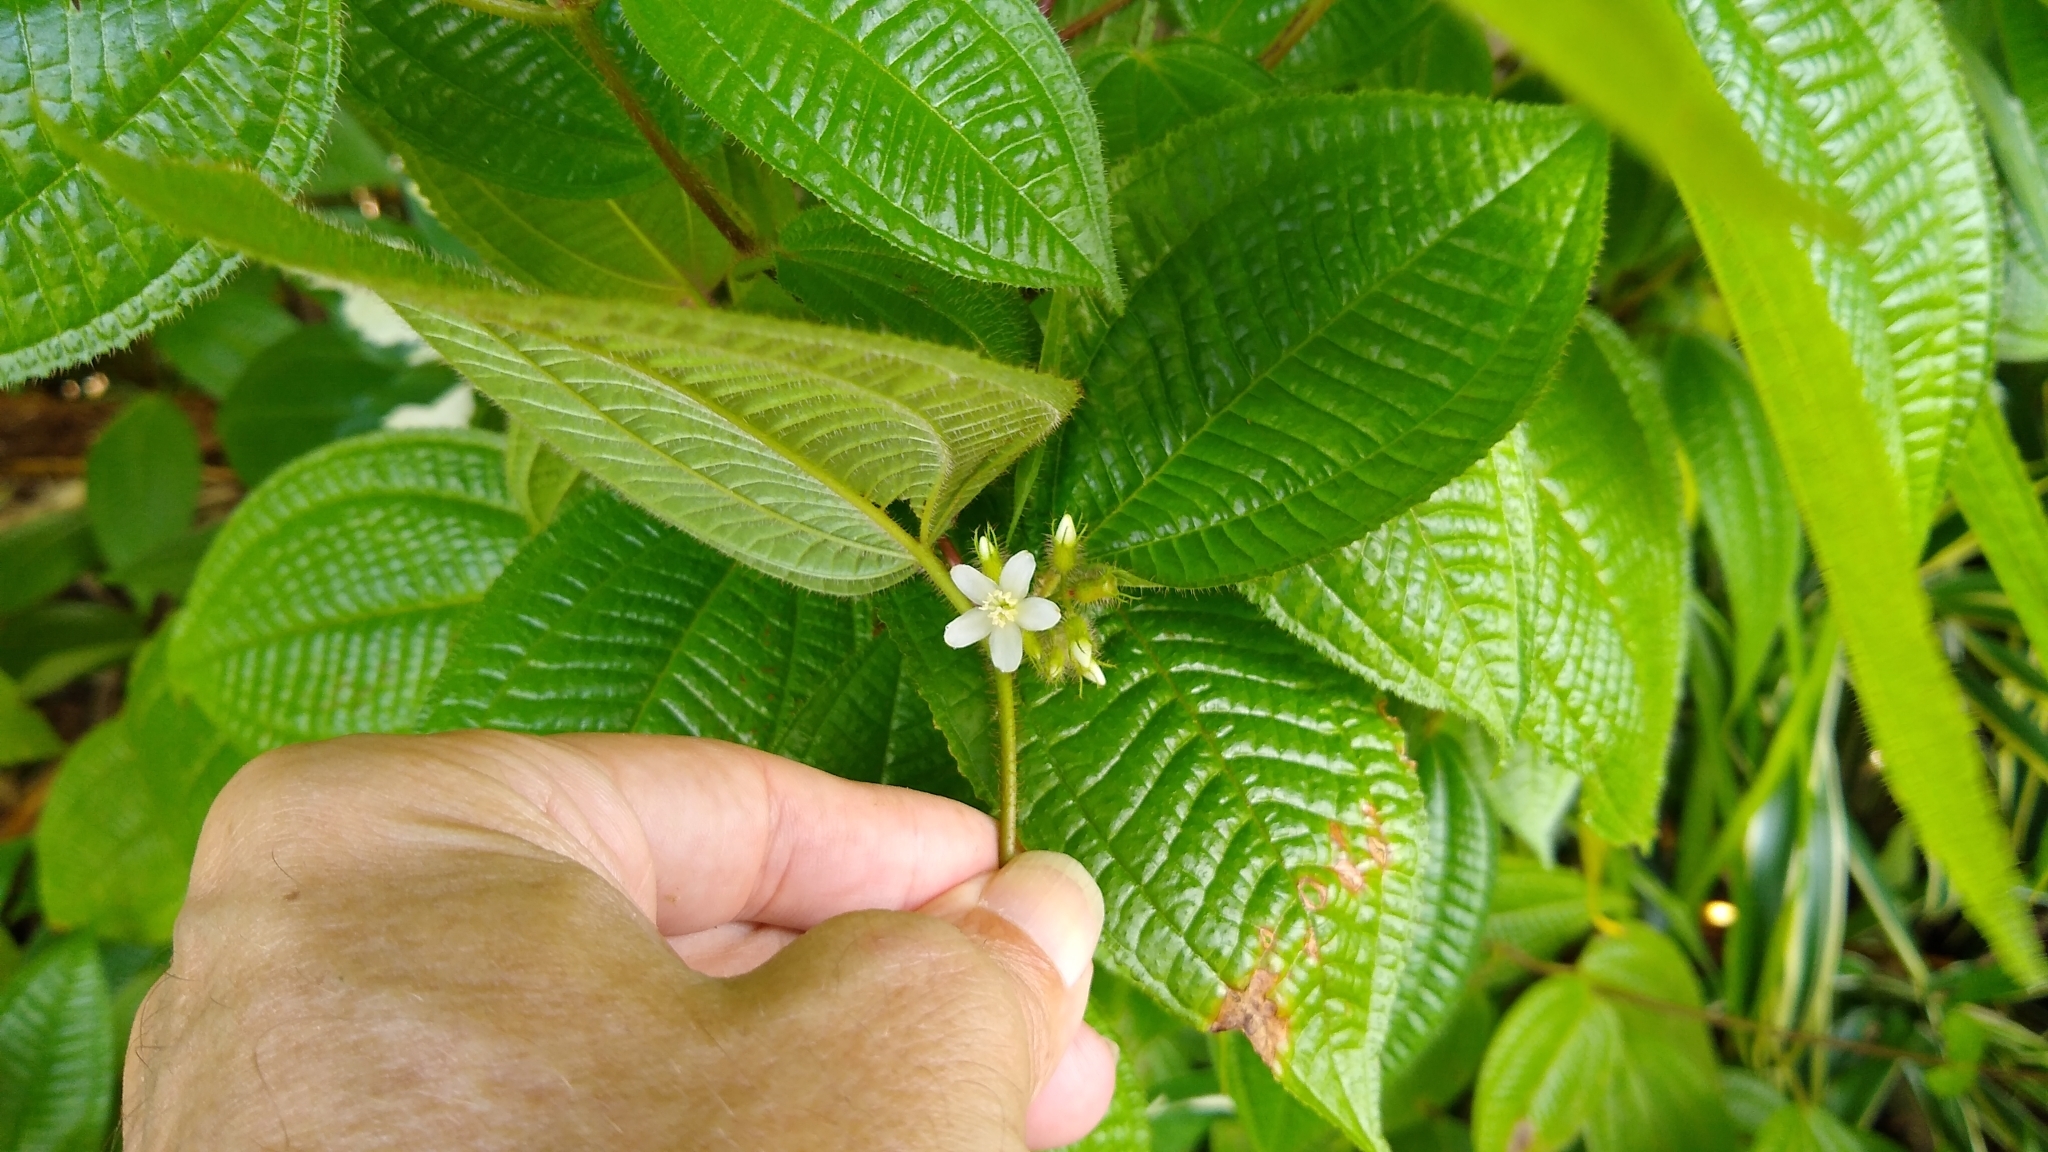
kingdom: Plantae
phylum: Tracheophyta
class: Magnoliopsida
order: Myrtales
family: Melastomataceae
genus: Miconia
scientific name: Miconia crenata
